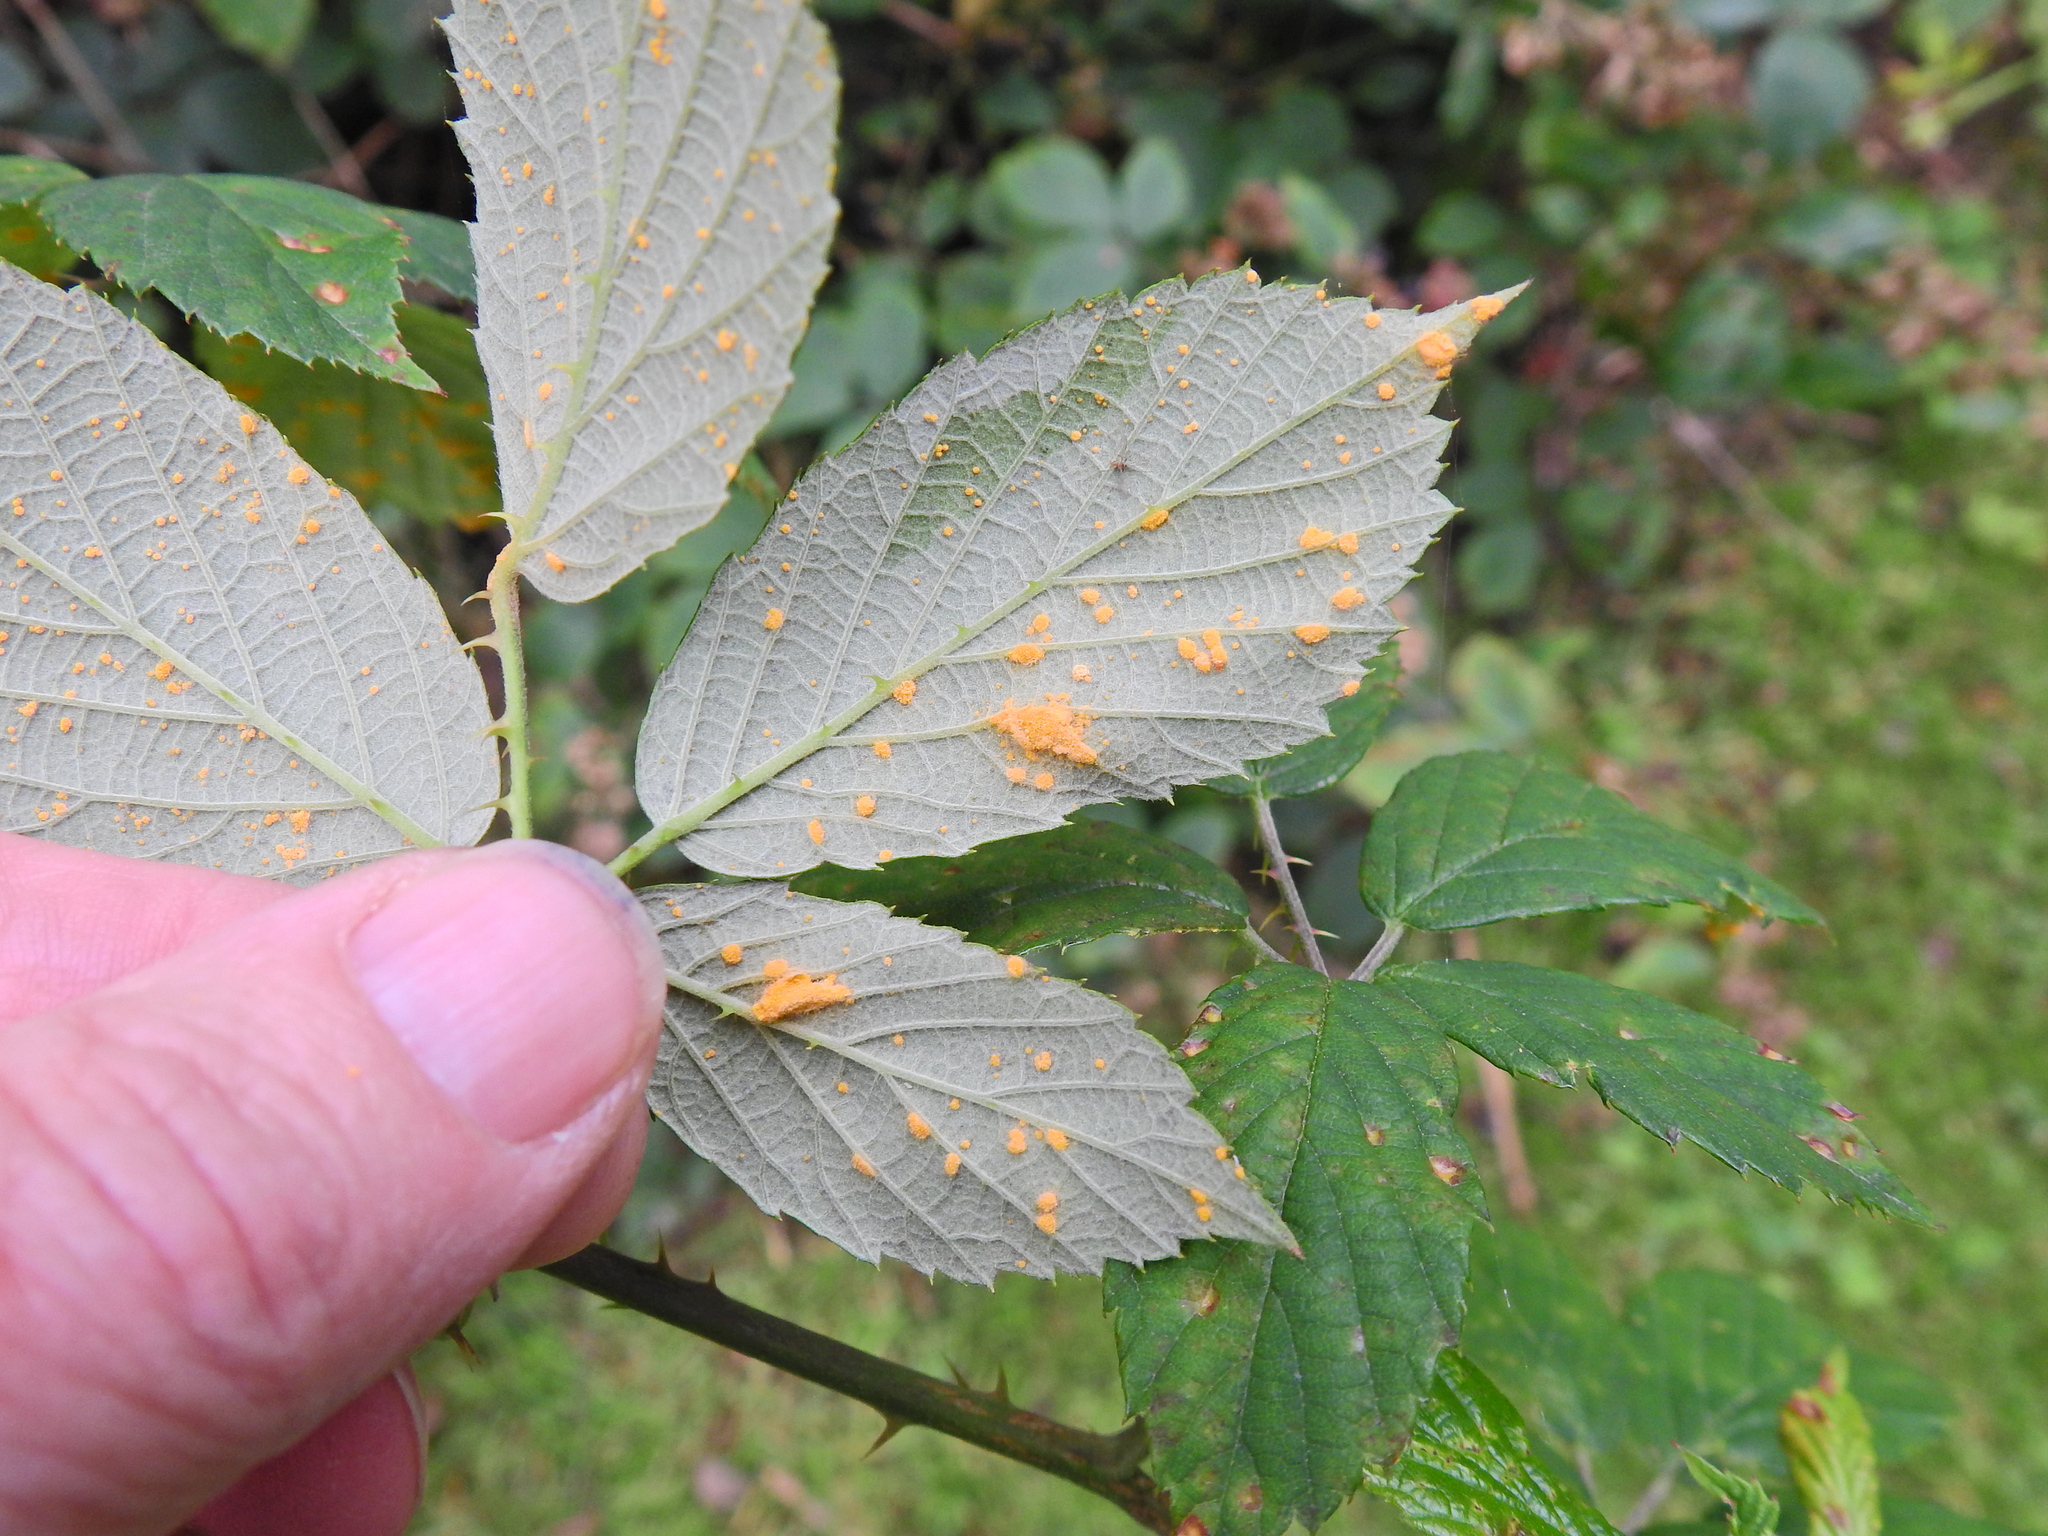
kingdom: Fungi
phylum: Basidiomycota
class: Pucciniomycetes
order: Pucciniales
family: Phragmidiaceae
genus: Phragmidium
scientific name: Phragmidium violaceum
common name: Violet bramble rust
